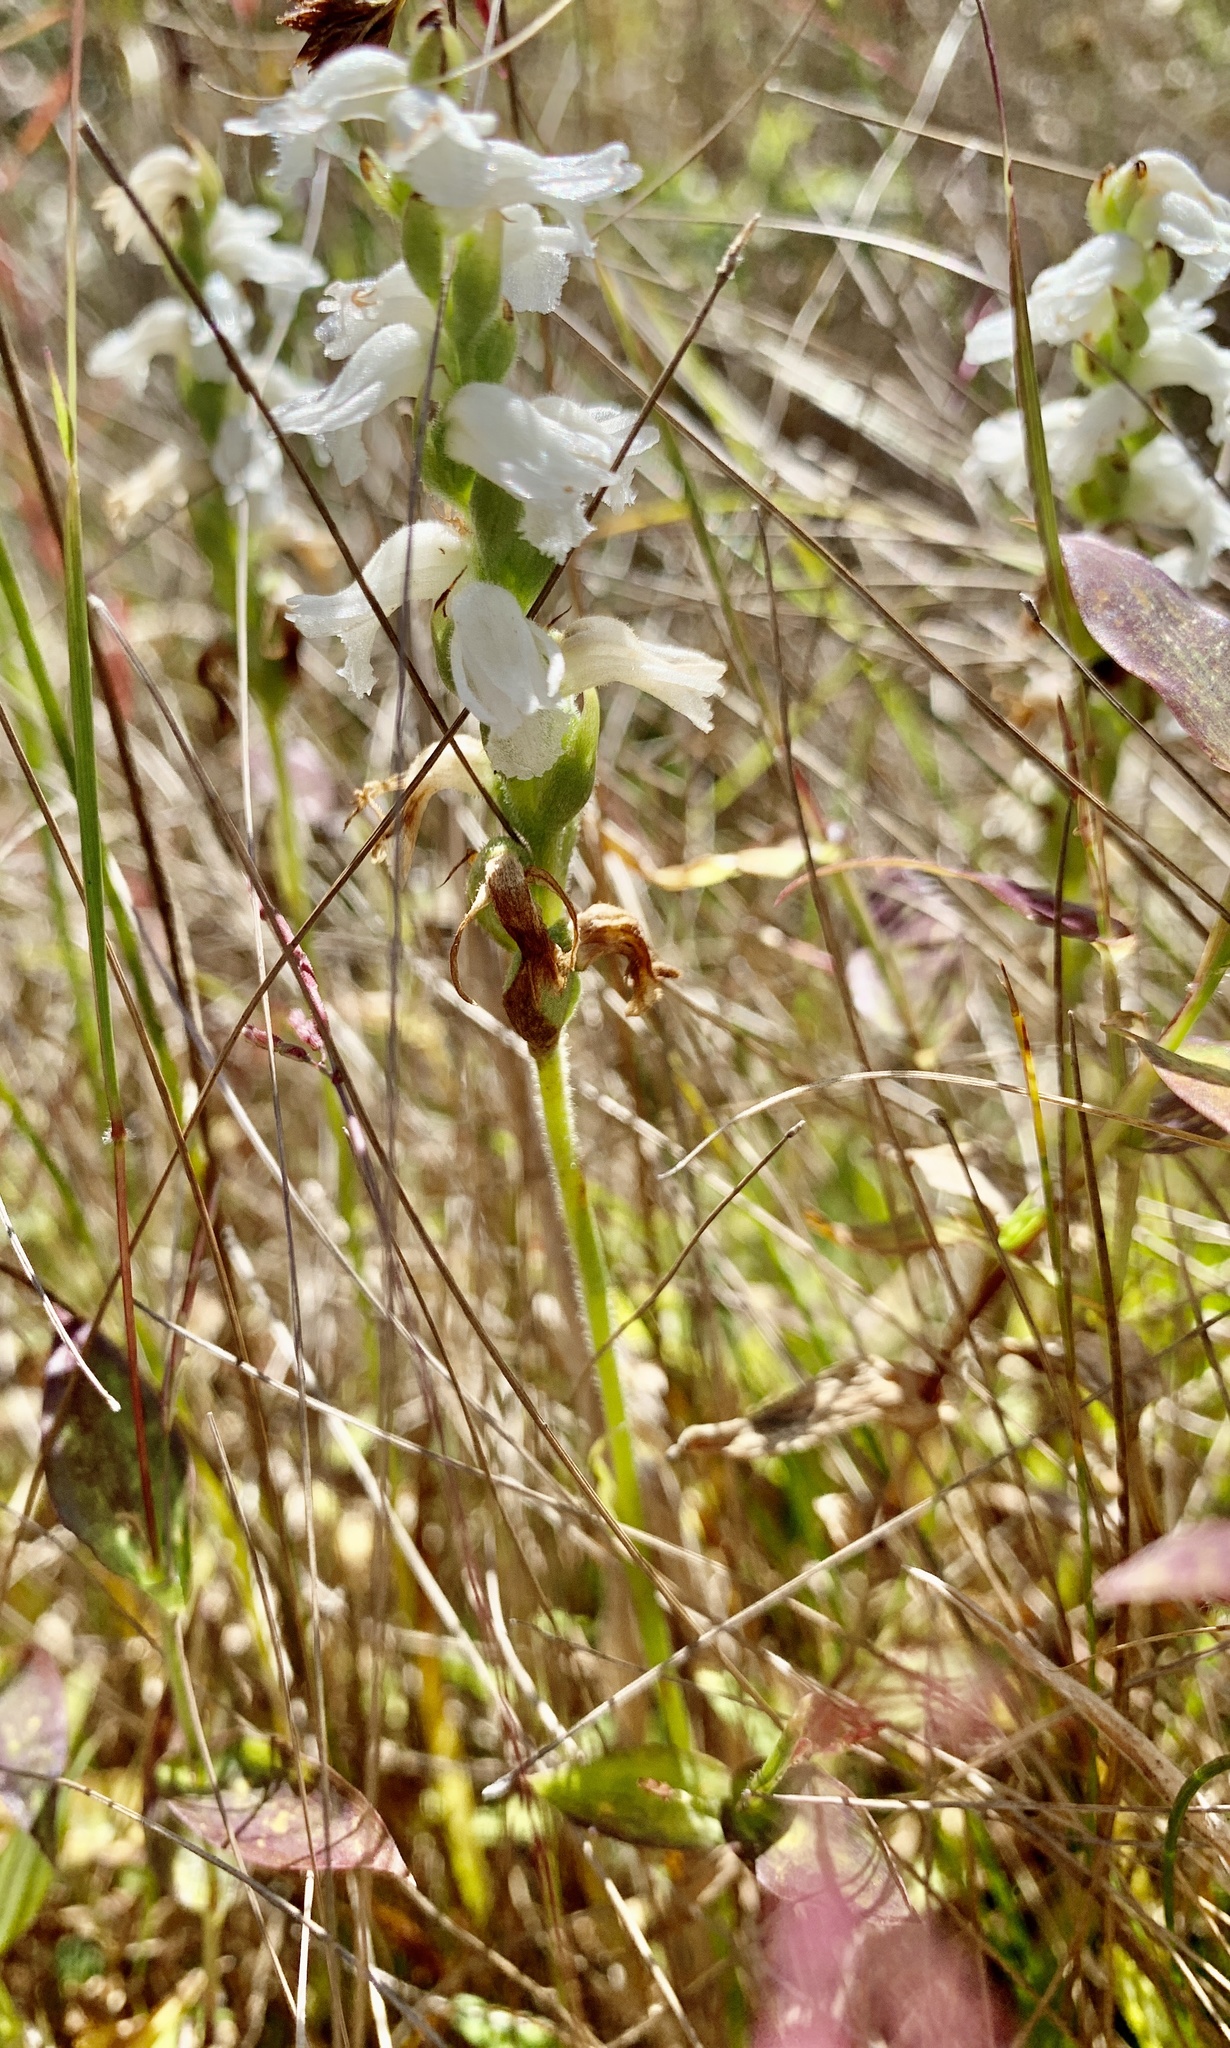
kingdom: Plantae
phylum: Tracheophyta
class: Liliopsida
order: Asparagales
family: Orchidaceae
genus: Spiranthes
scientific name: Spiranthes cernua
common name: Dropping ladies'-tresses
